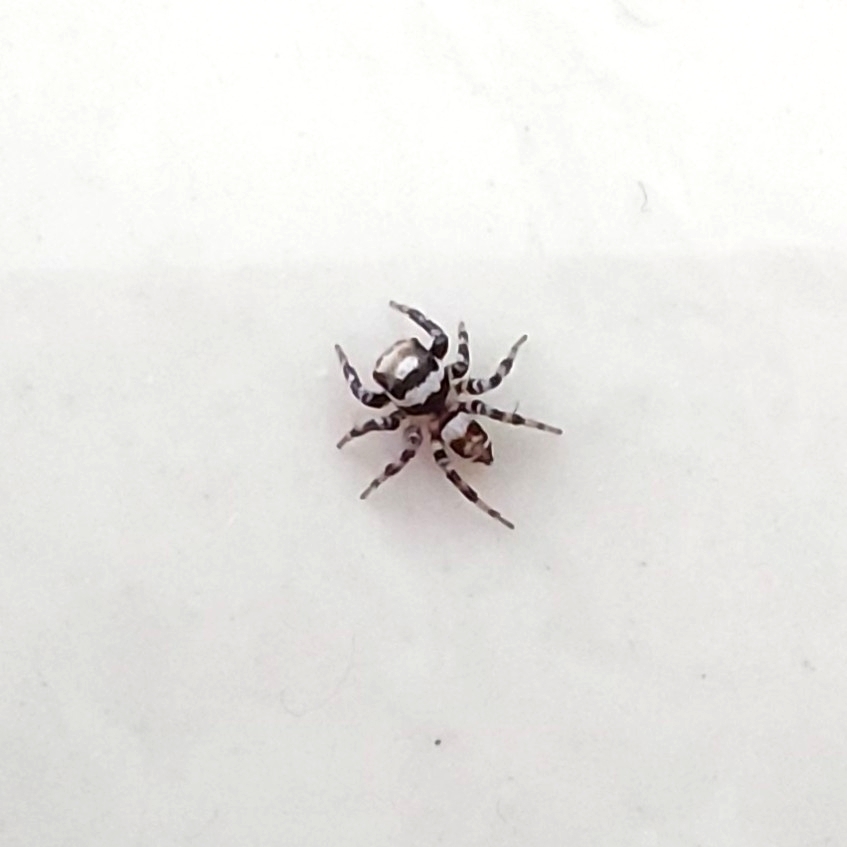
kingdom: Animalia
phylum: Arthropoda
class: Arachnida
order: Araneae
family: Salticidae
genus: Orientattus
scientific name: Orientattus aurantius
